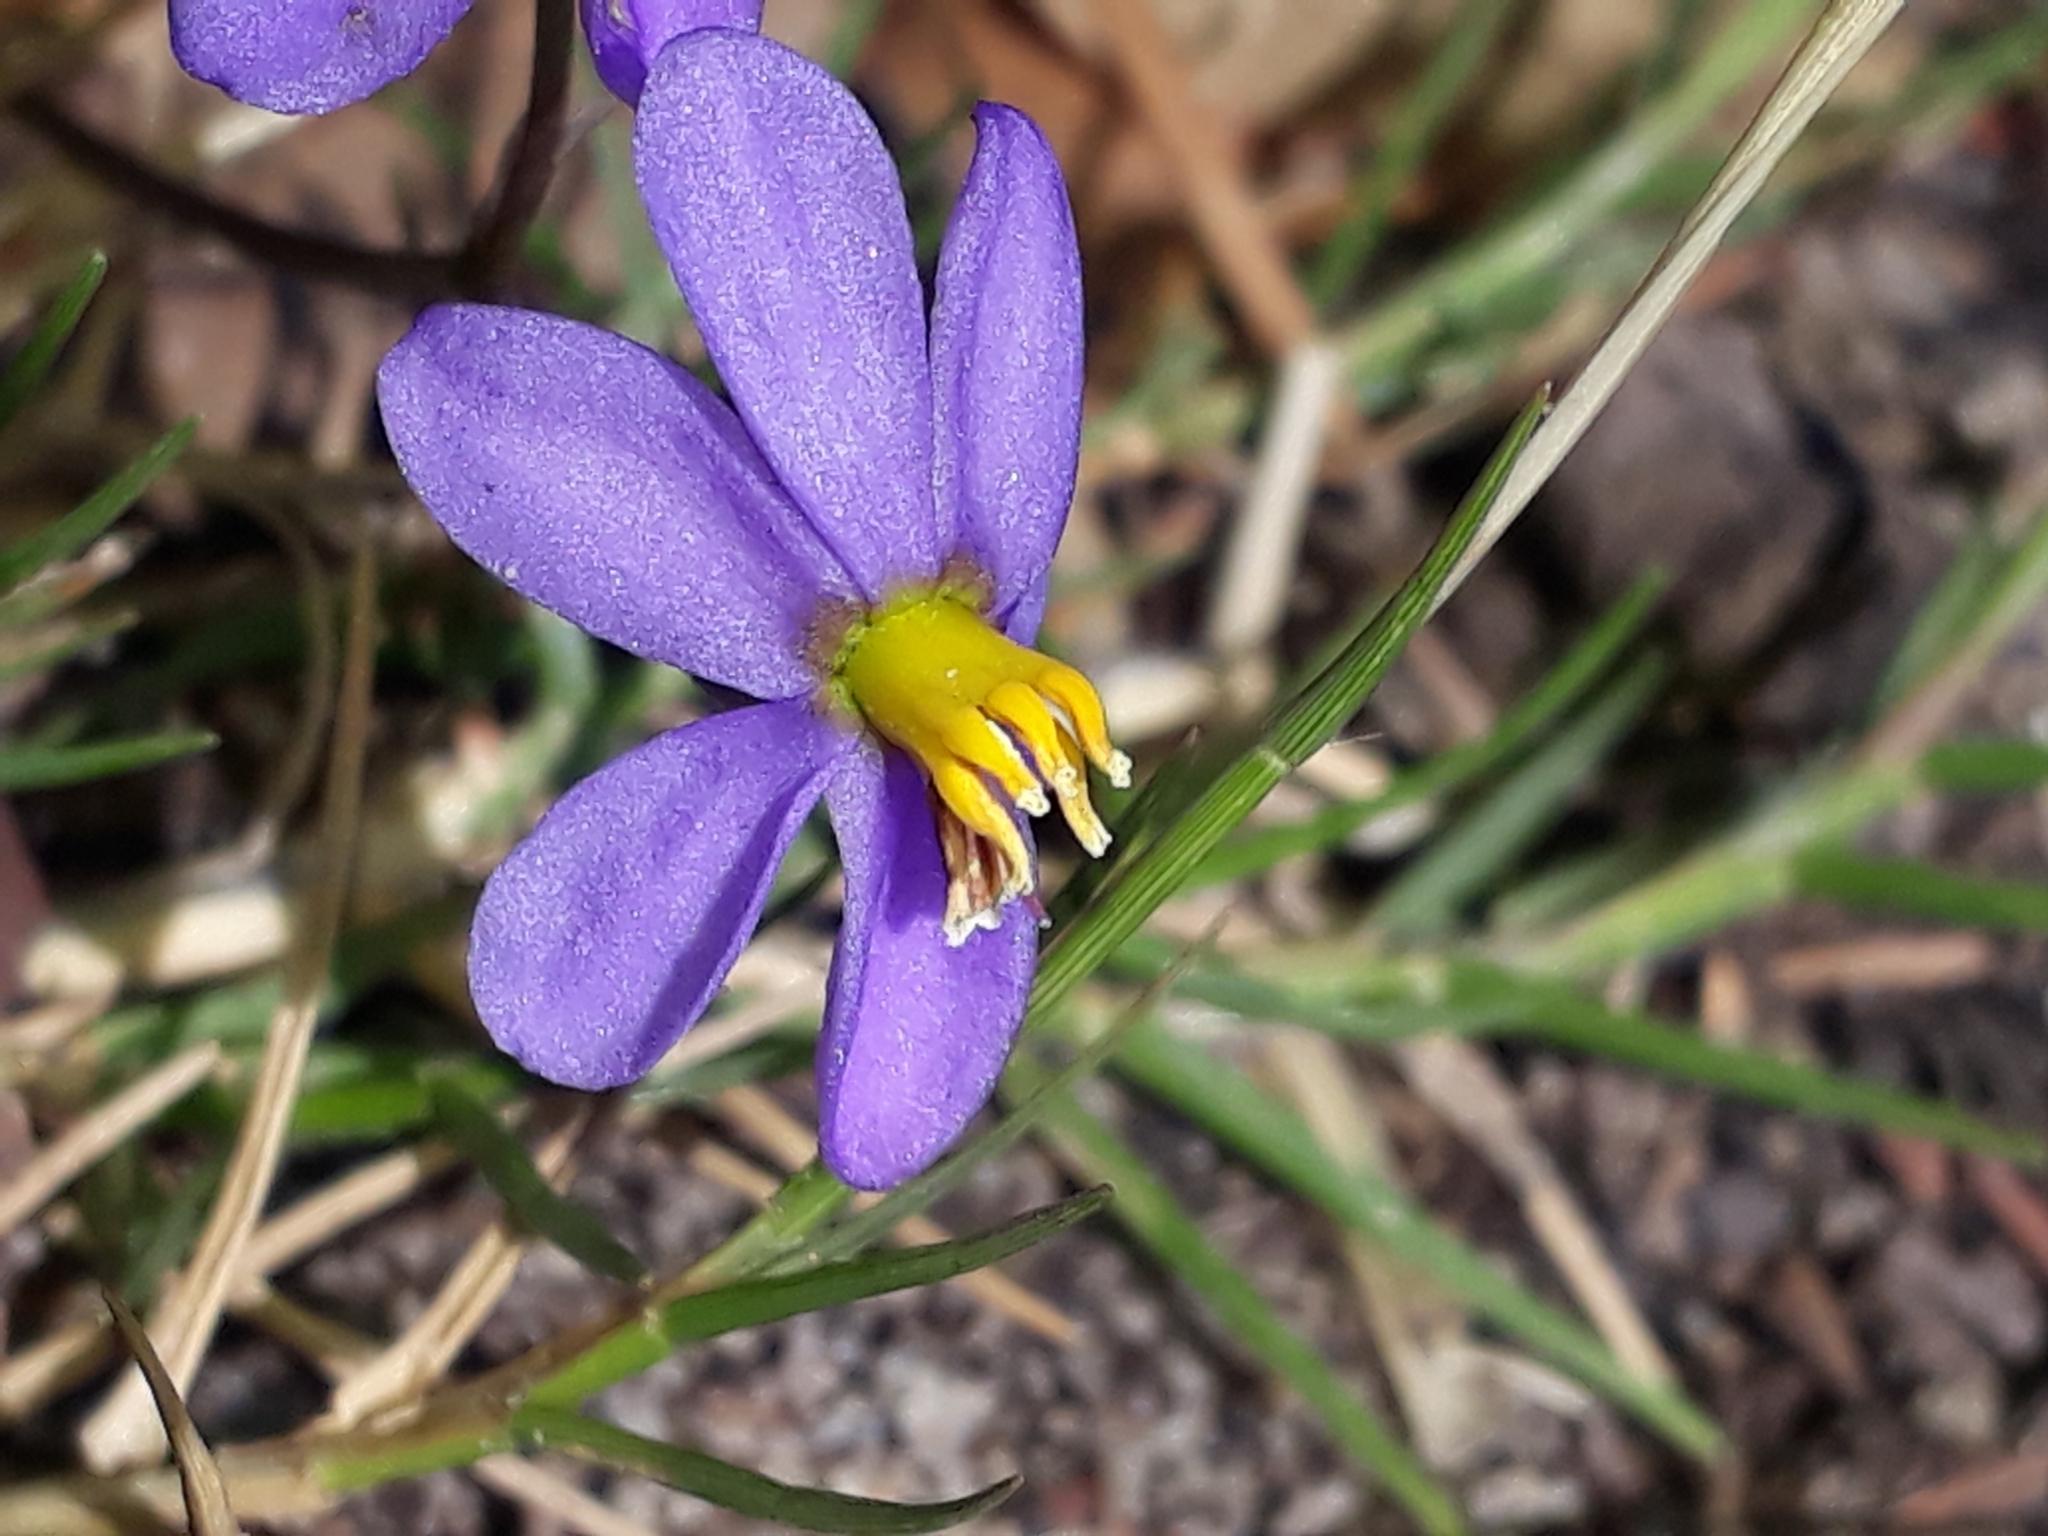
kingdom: Plantae
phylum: Tracheophyta
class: Liliopsida
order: Asparagales
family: Tecophilaeaceae
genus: Cyanella
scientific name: Cyanella hyacinthoides
